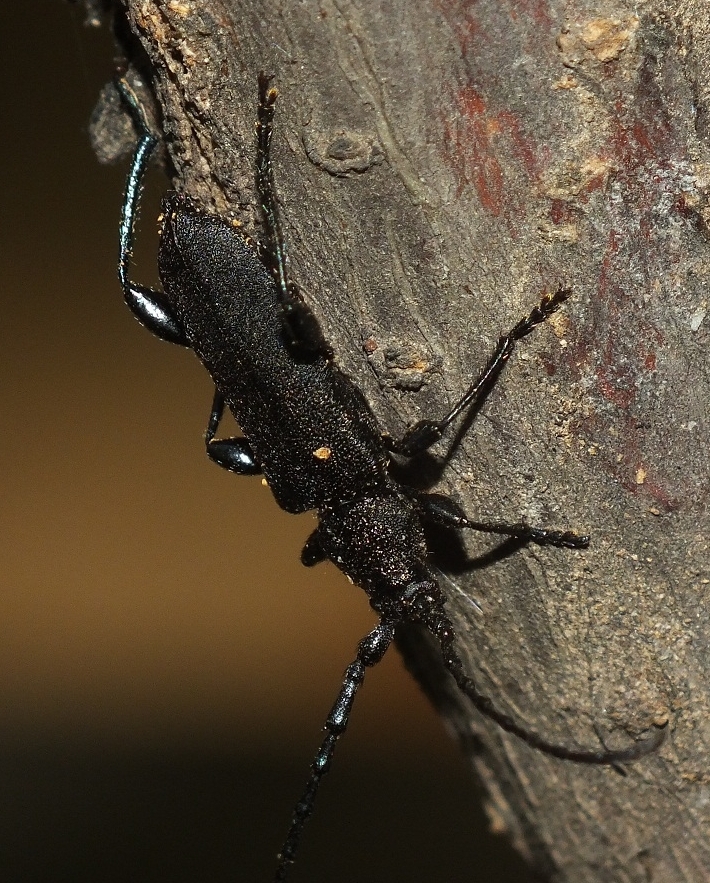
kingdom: Animalia
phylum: Arthropoda
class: Insecta
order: Coleoptera
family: Cerambycidae
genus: Ropalopus
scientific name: Ropalopus clavipes
